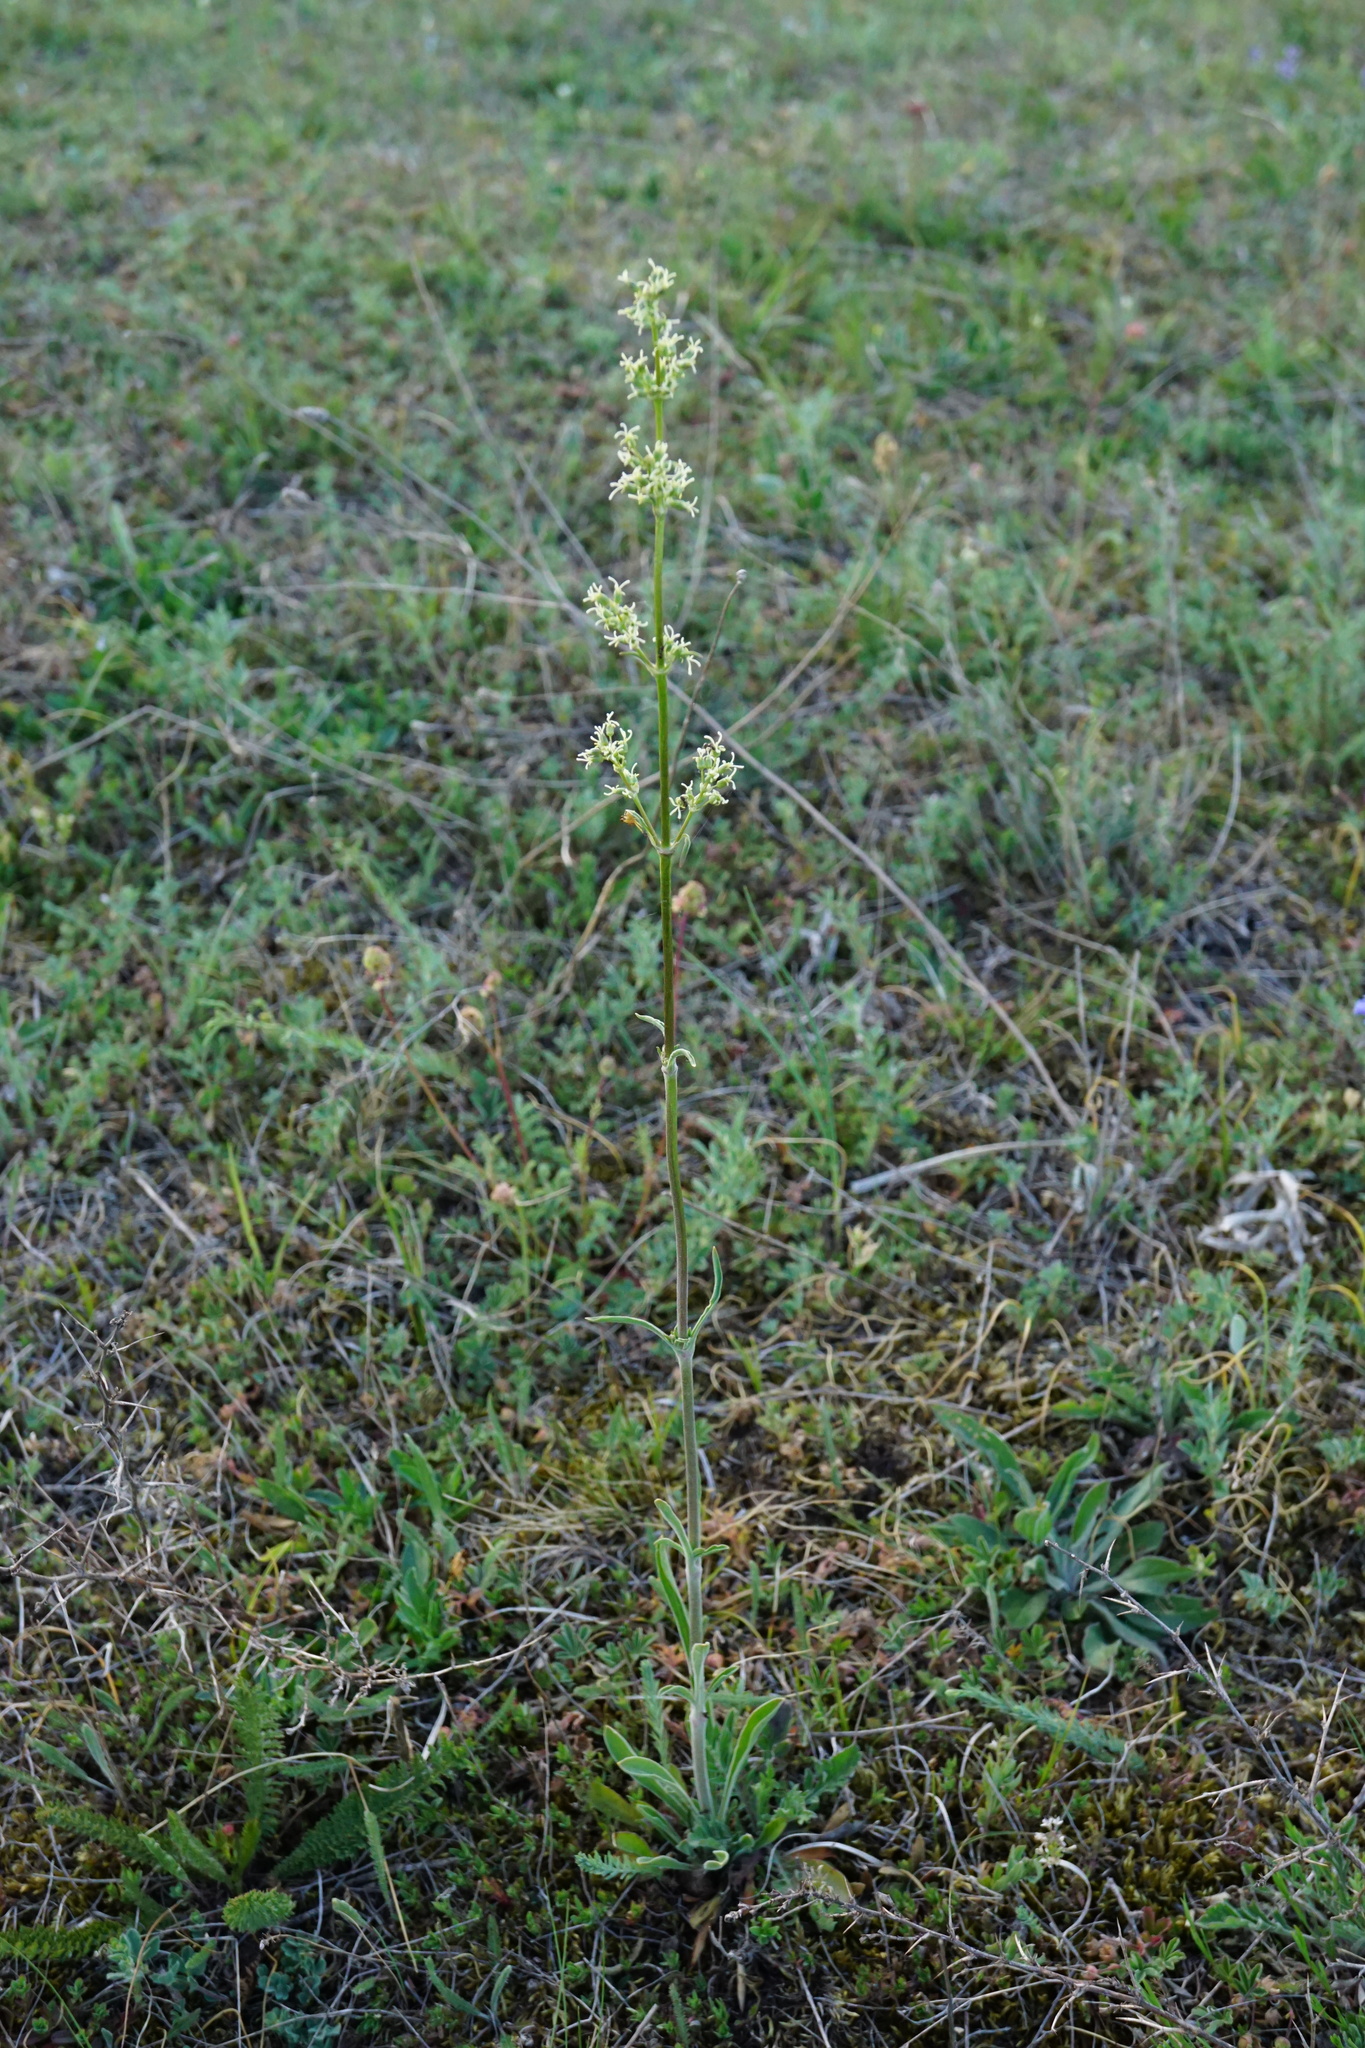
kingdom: Plantae
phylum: Tracheophyta
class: Magnoliopsida
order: Caryophyllales
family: Caryophyllaceae
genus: Silene
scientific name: Silene otites
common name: Spanish catchfly
